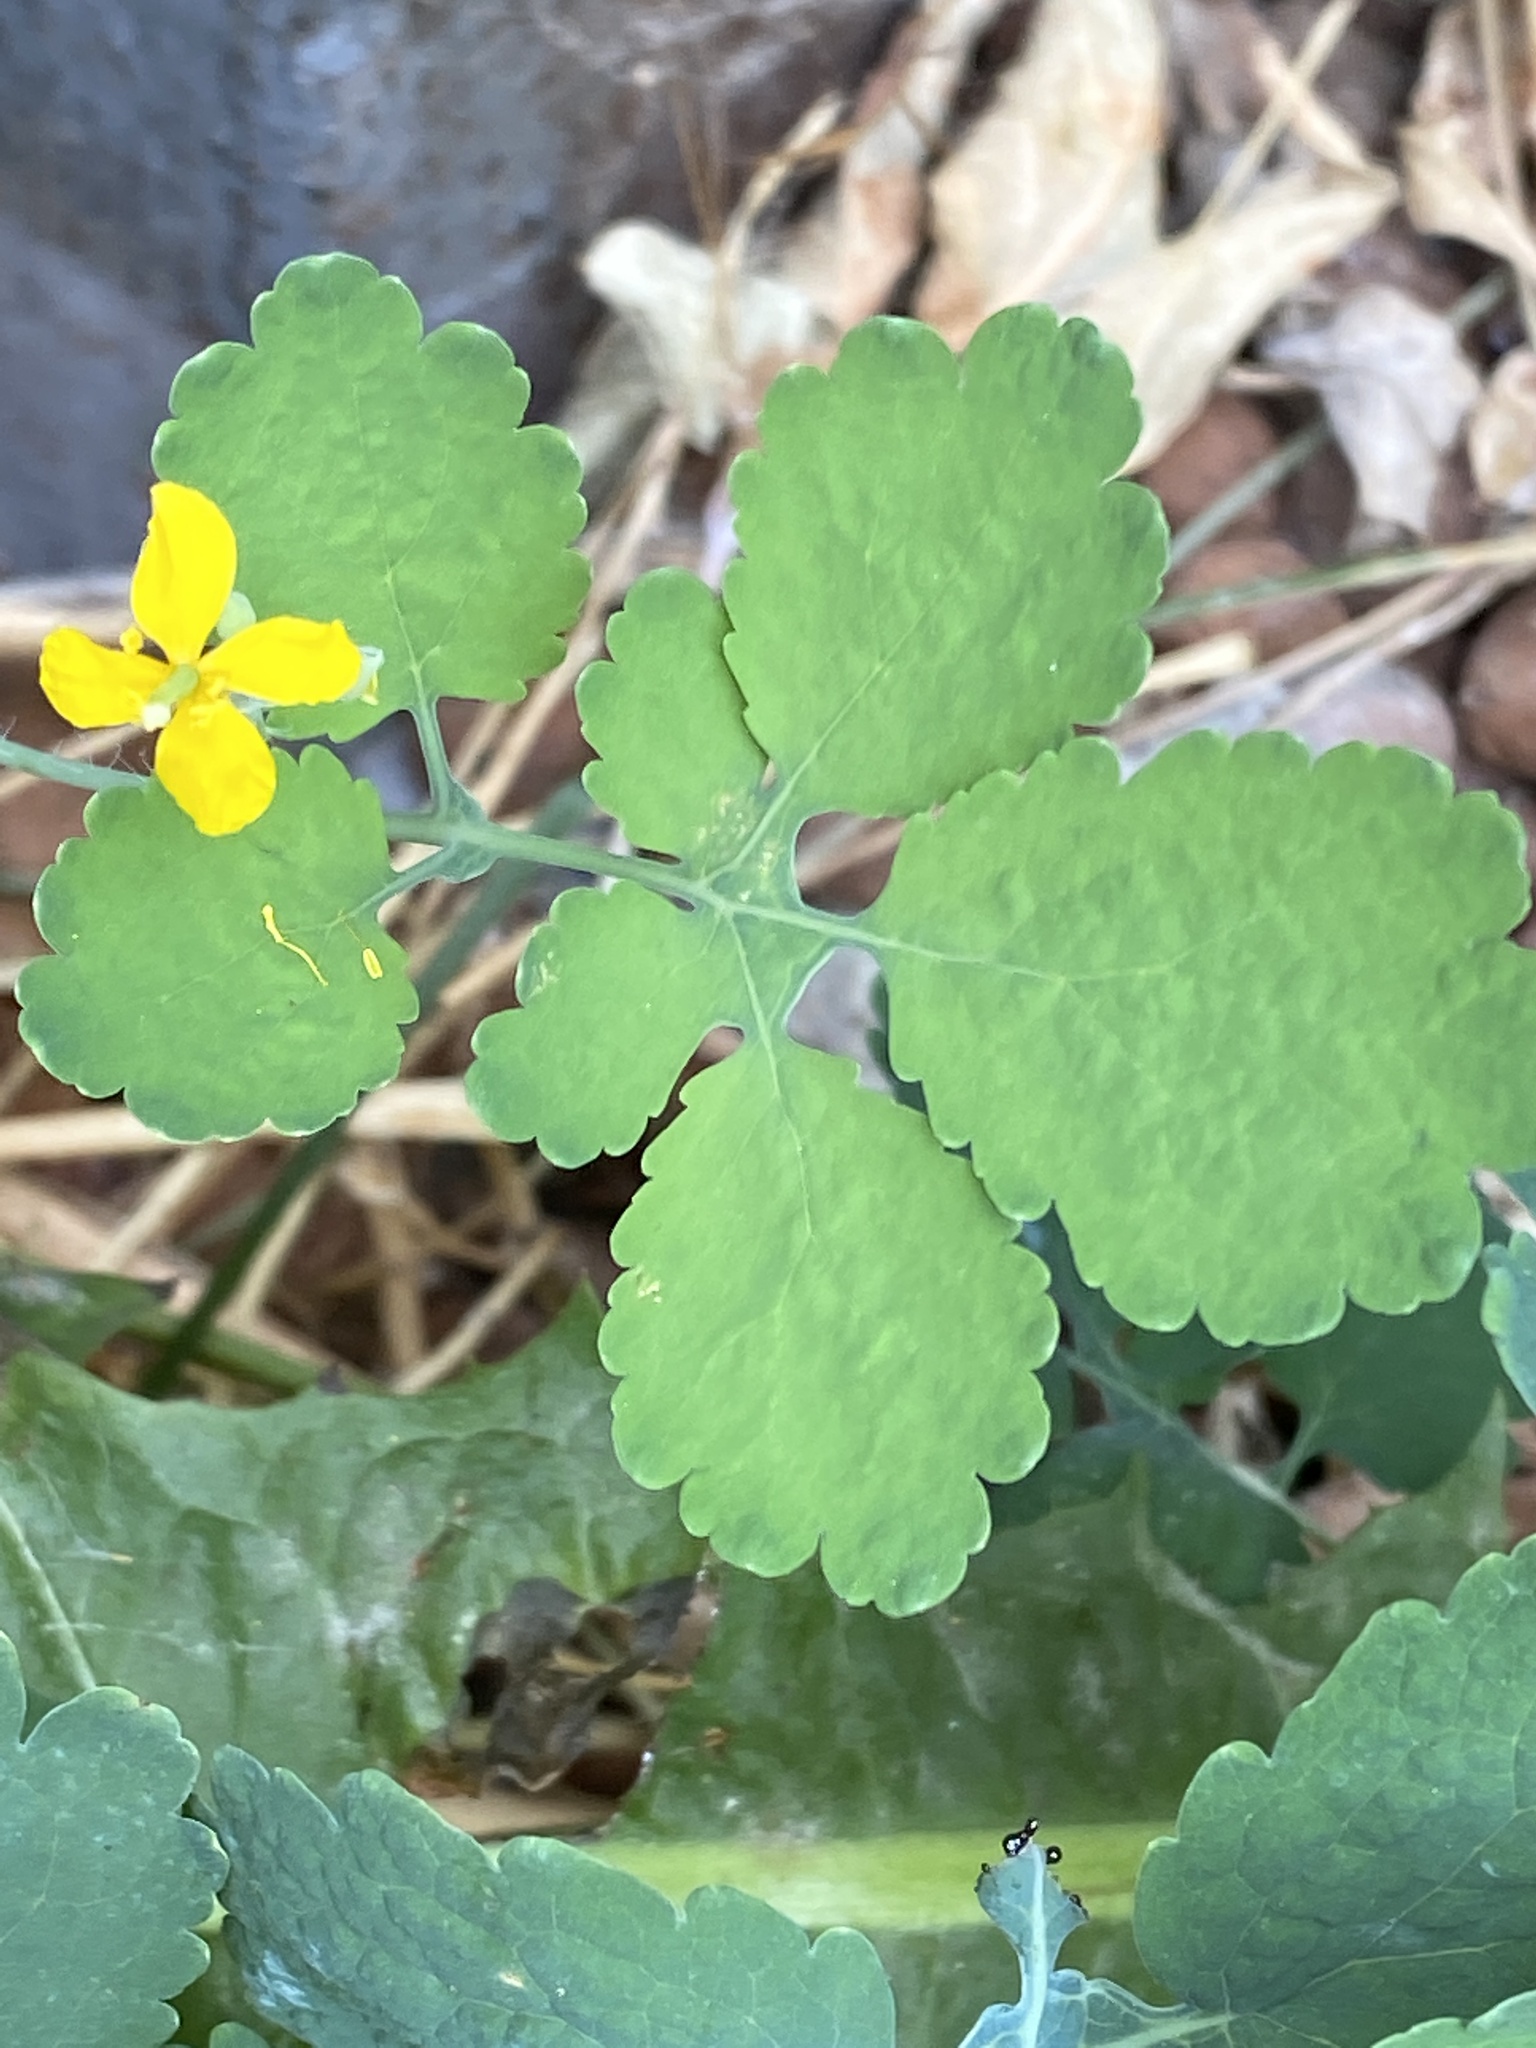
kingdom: Plantae
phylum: Tracheophyta
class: Magnoliopsida
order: Ranunculales
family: Papaveraceae
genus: Chelidonium
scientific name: Chelidonium majus
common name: Greater celandine
